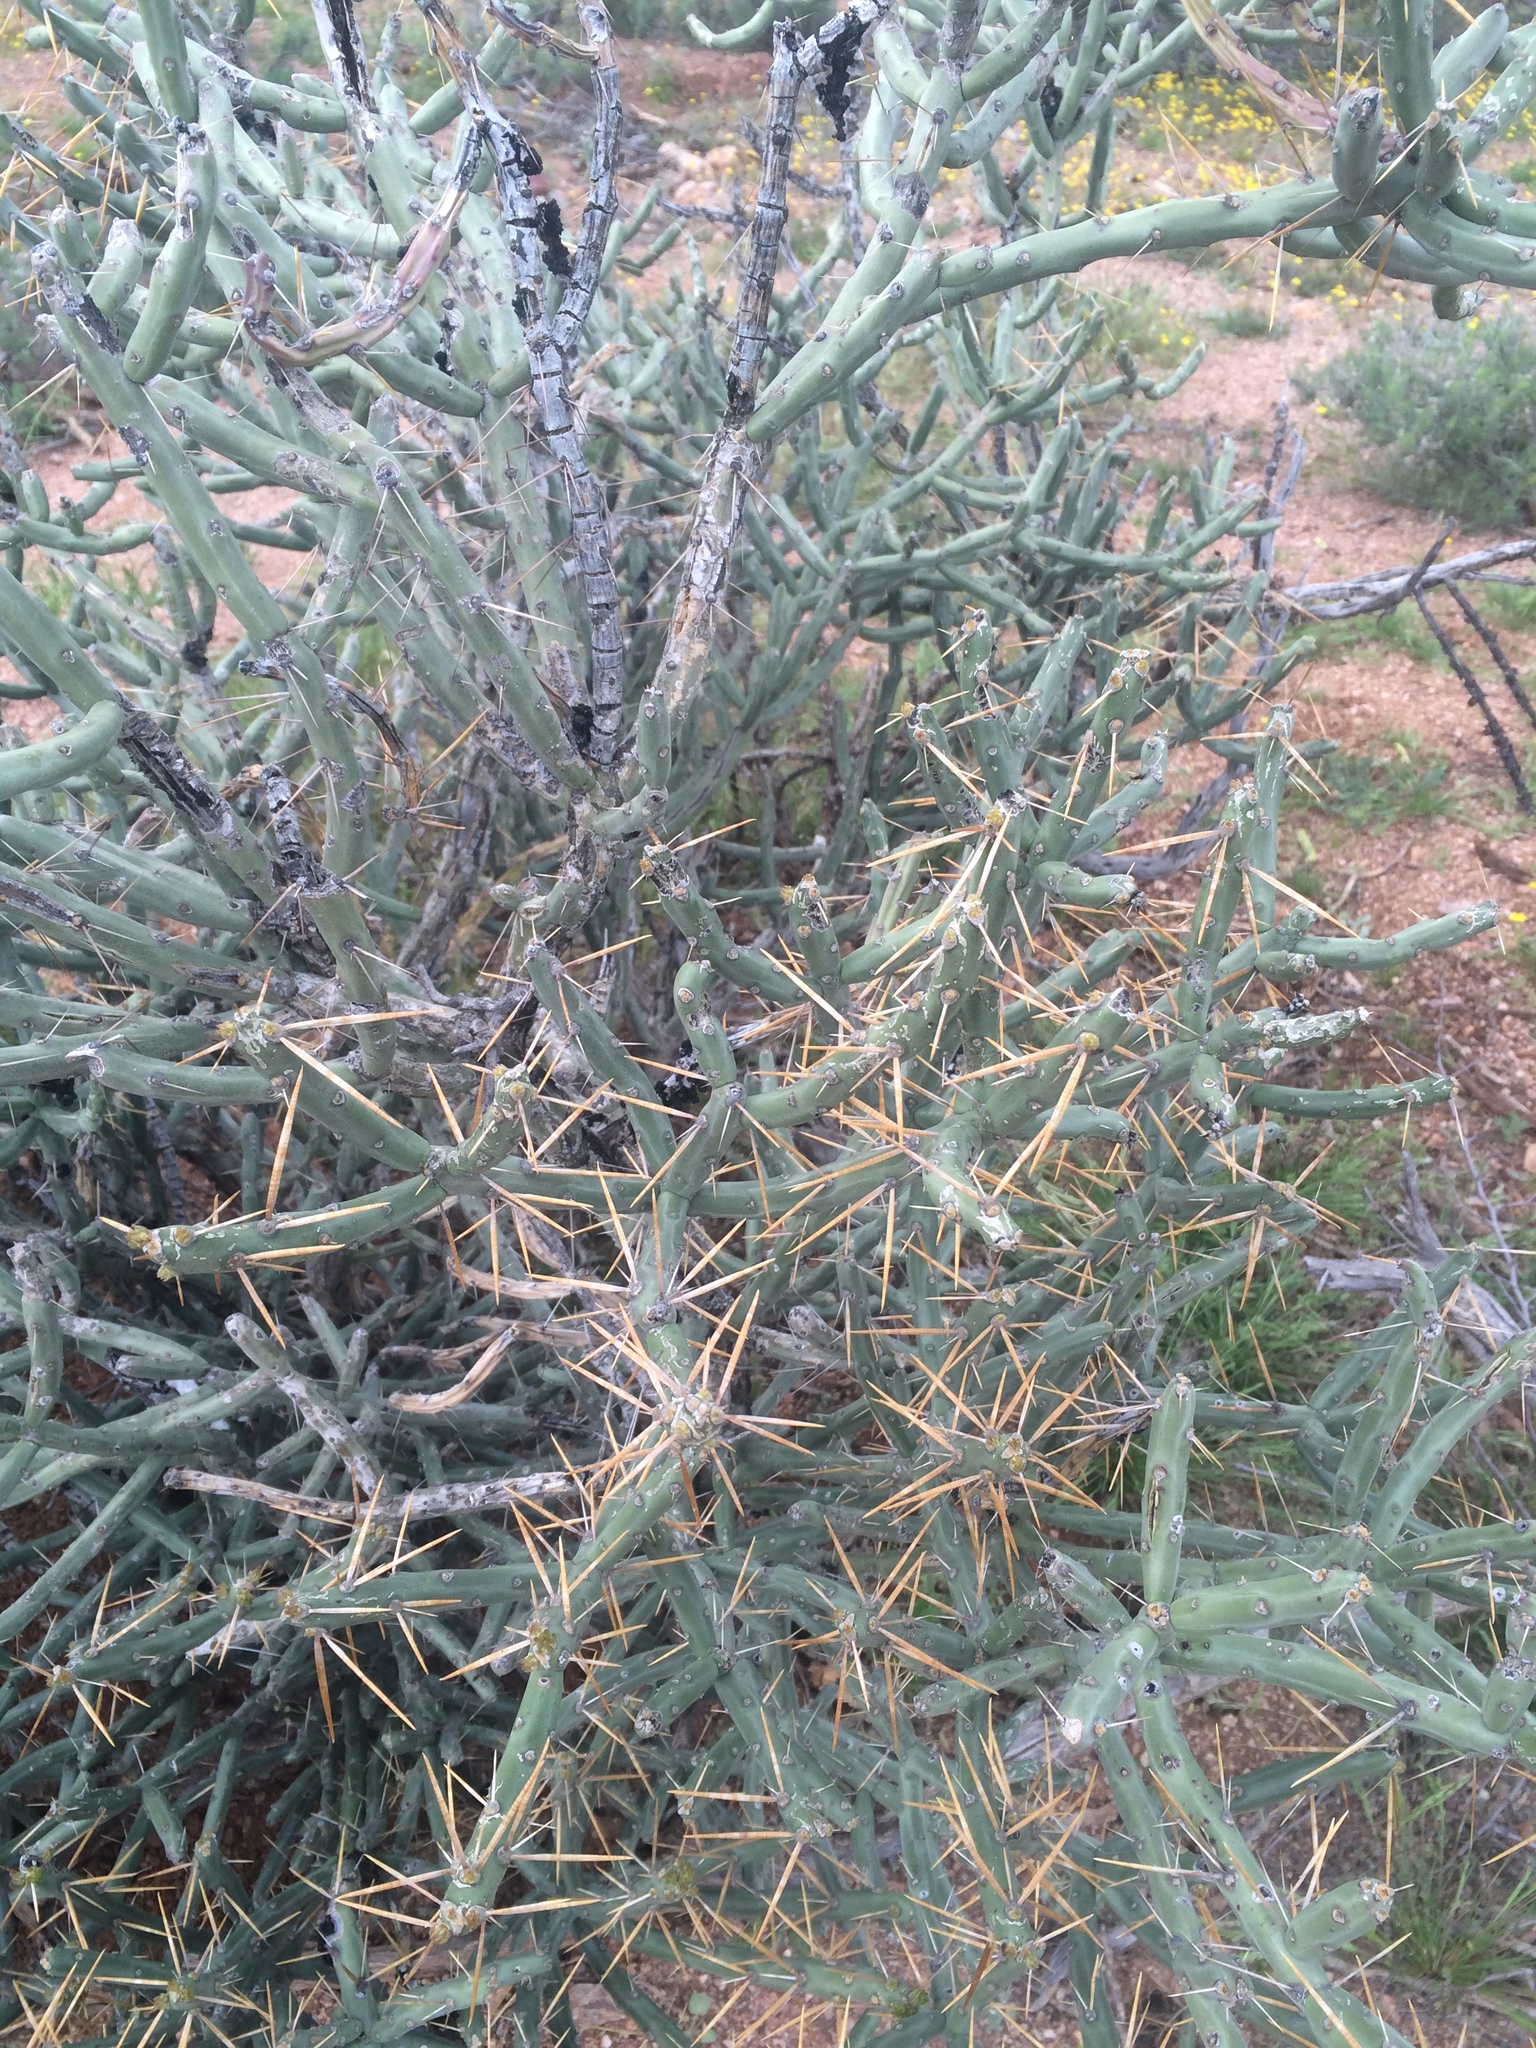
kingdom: Plantae
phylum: Tracheophyta
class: Magnoliopsida
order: Caryophyllales
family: Cactaceae
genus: Cylindropuntia
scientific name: Cylindropuntia arbuscula
